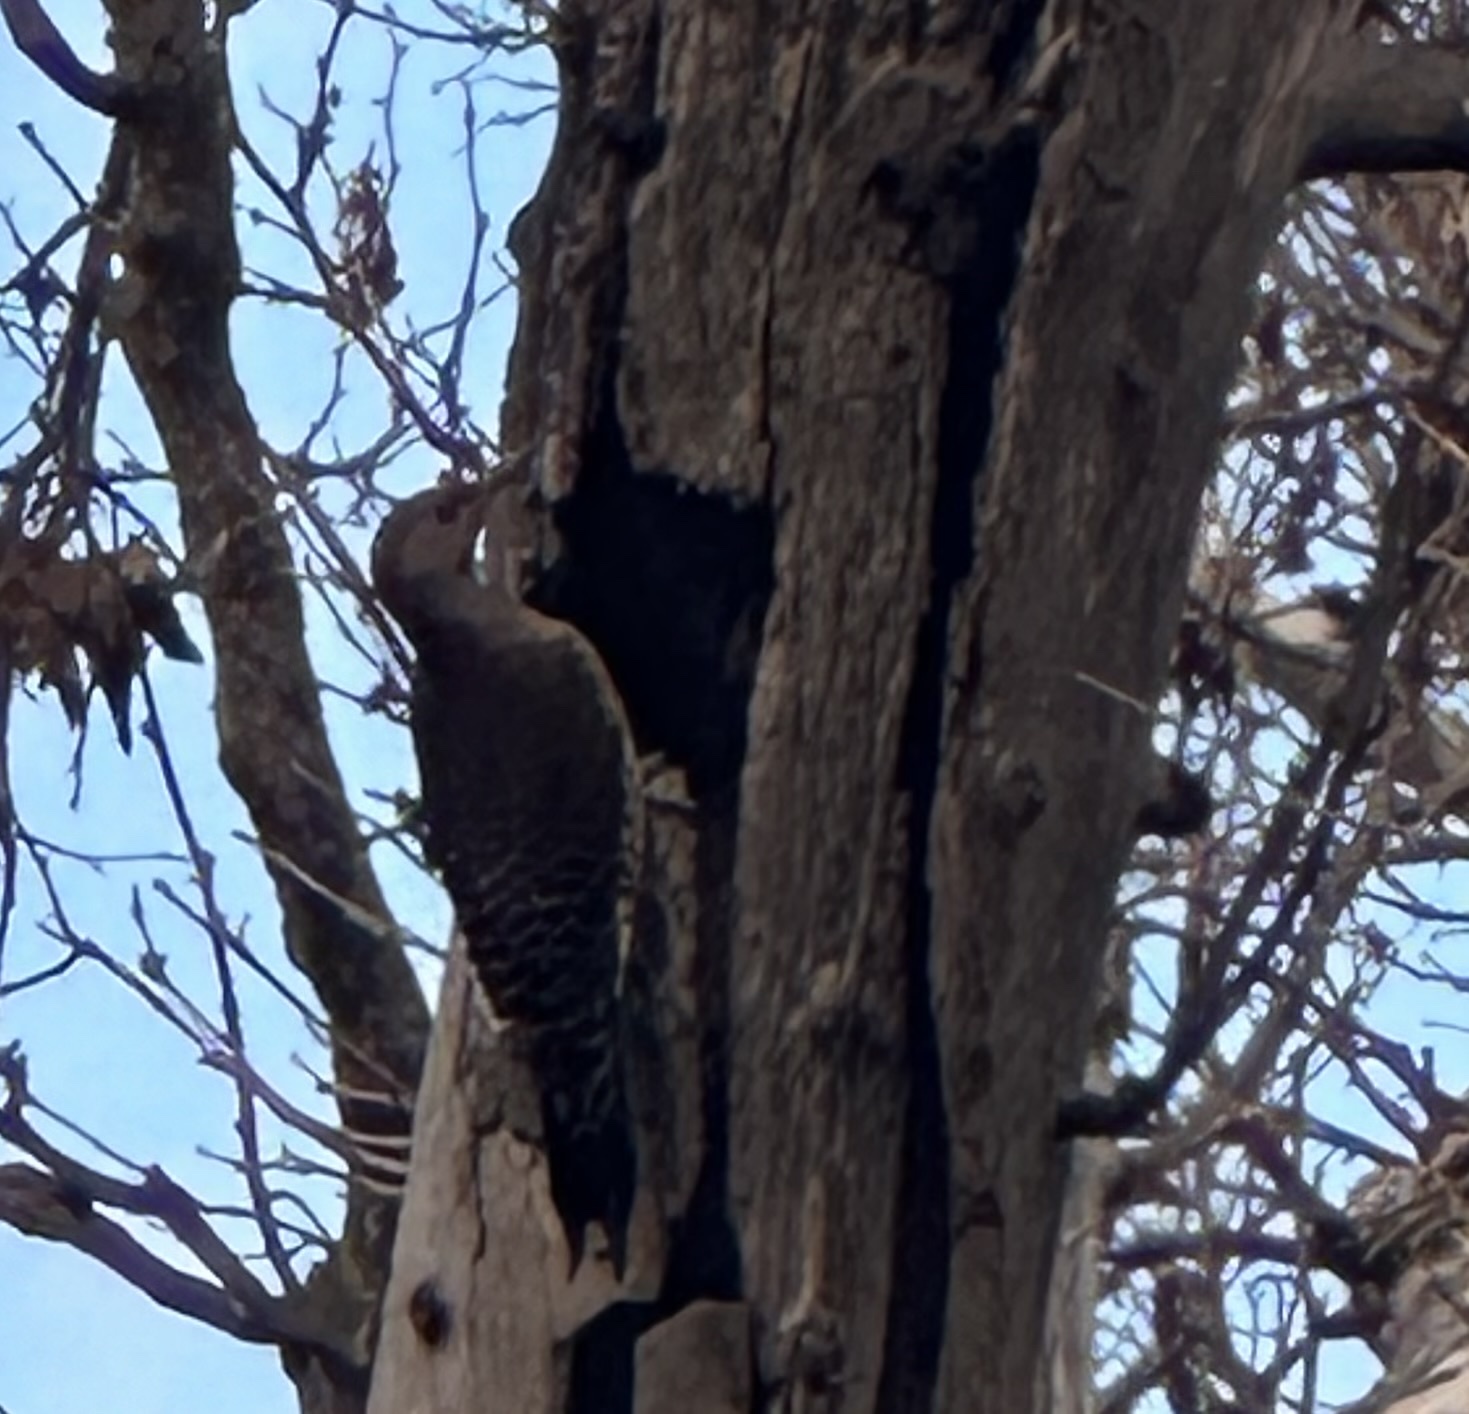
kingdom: Animalia
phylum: Chordata
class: Aves
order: Piciformes
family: Picidae
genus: Colaptes
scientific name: Colaptes auratus
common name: Northern flicker
